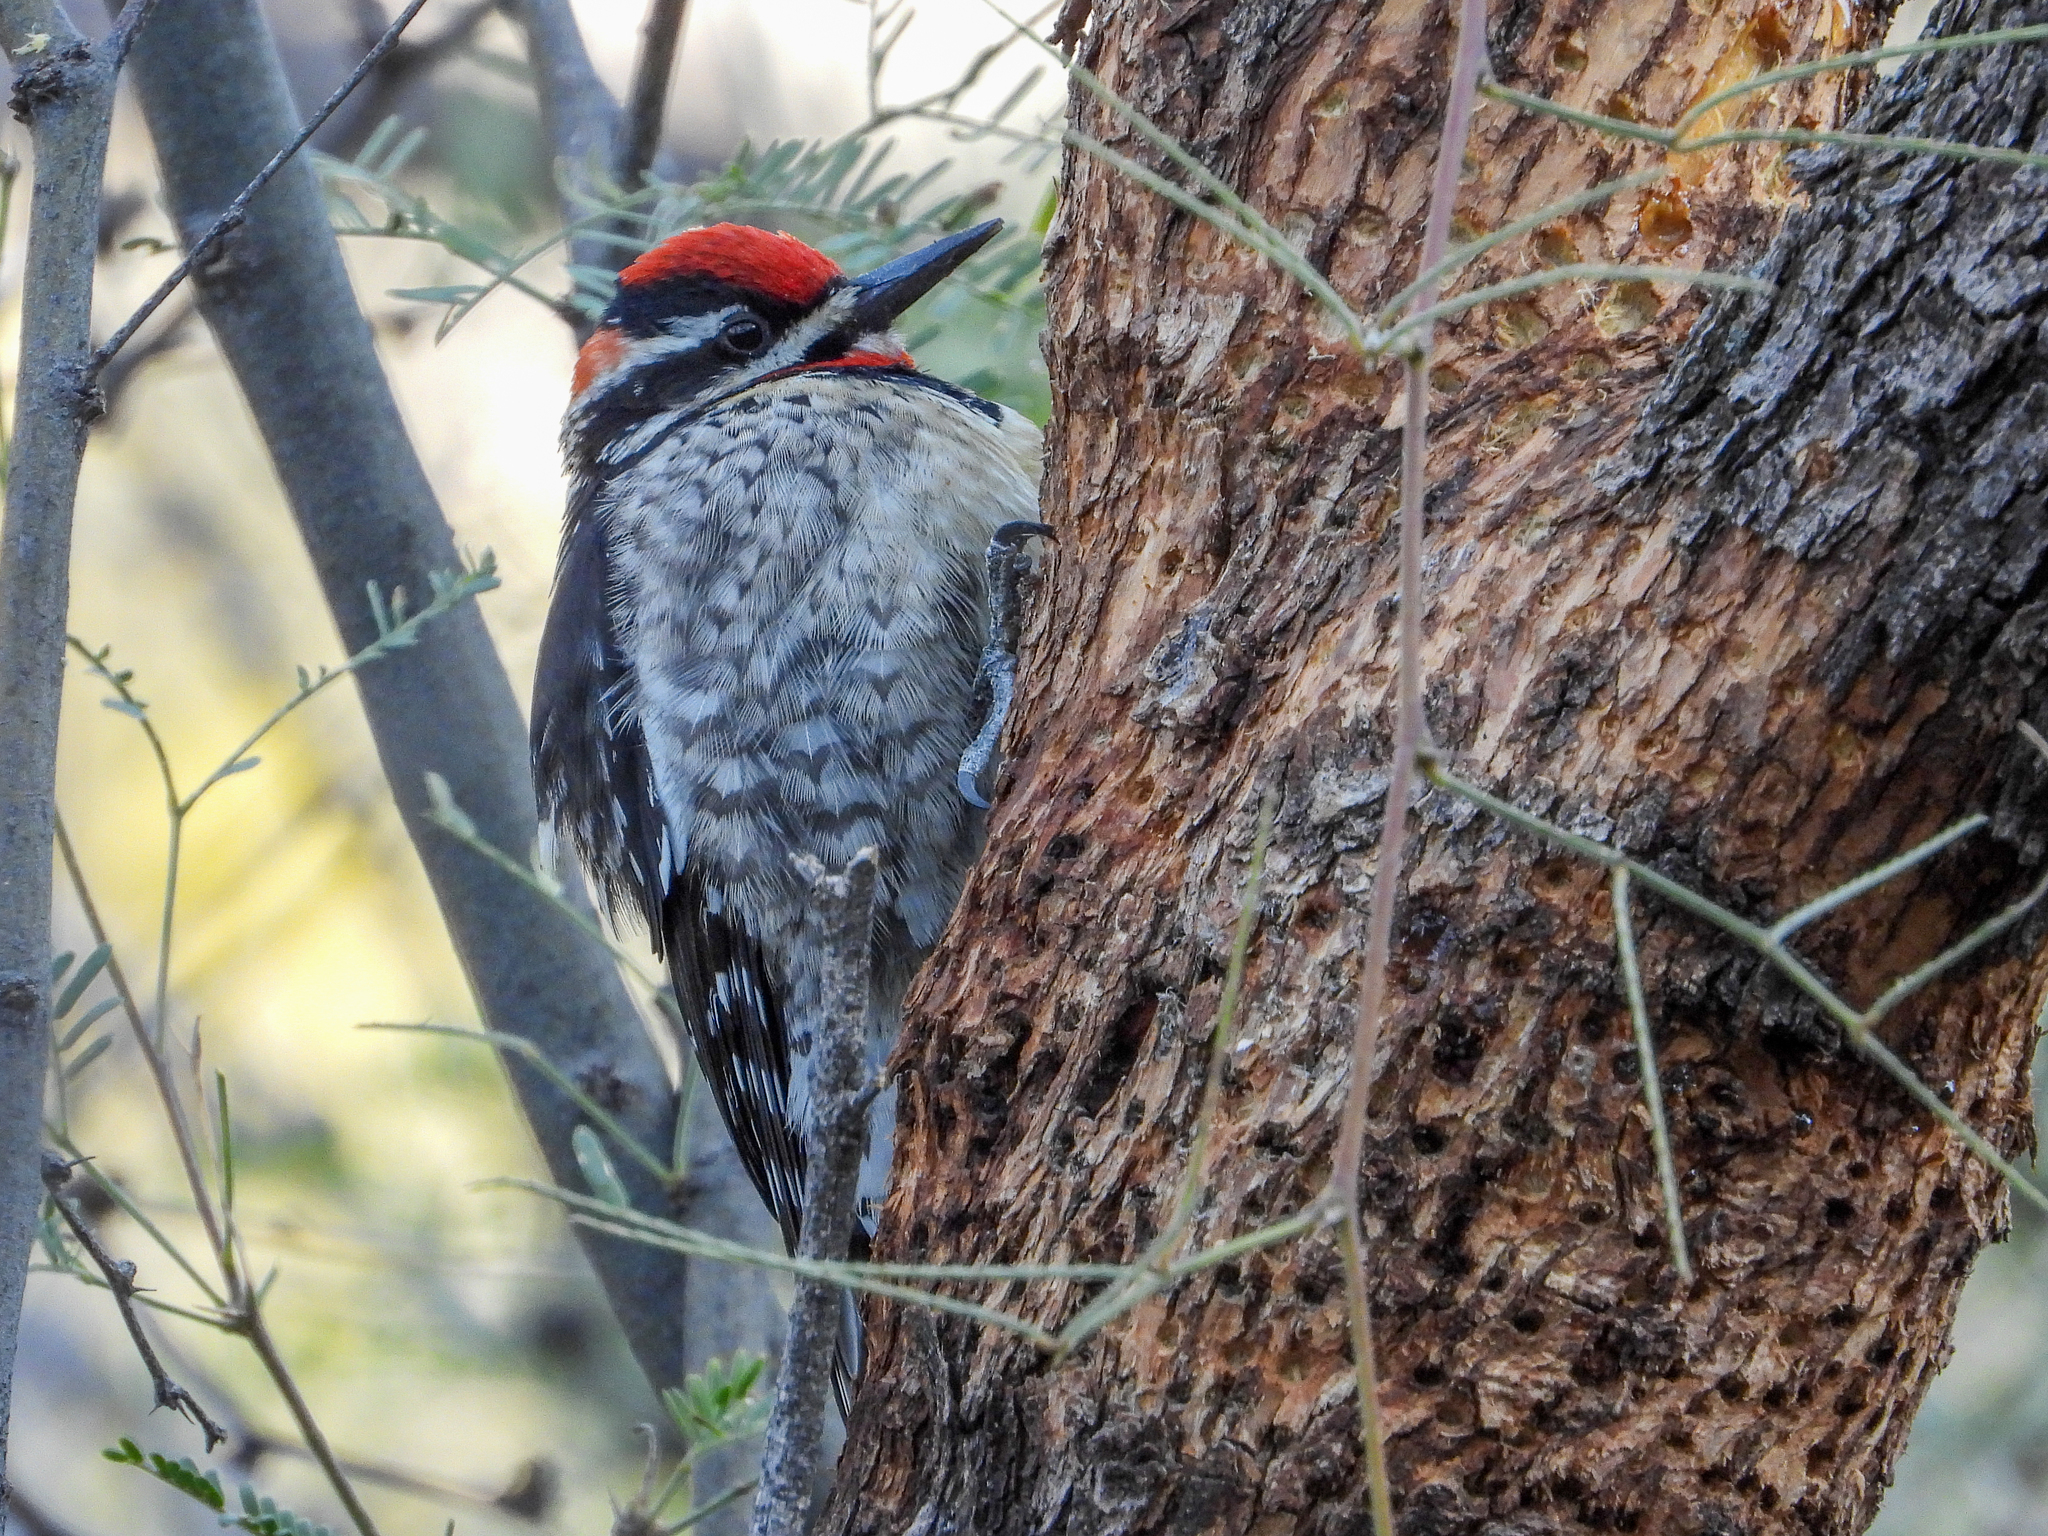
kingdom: Animalia
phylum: Chordata
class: Aves
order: Piciformes
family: Picidae
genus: Sphyrapicus
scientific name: Sphyrapicus nuchalis
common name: Red-naped sapsucker
